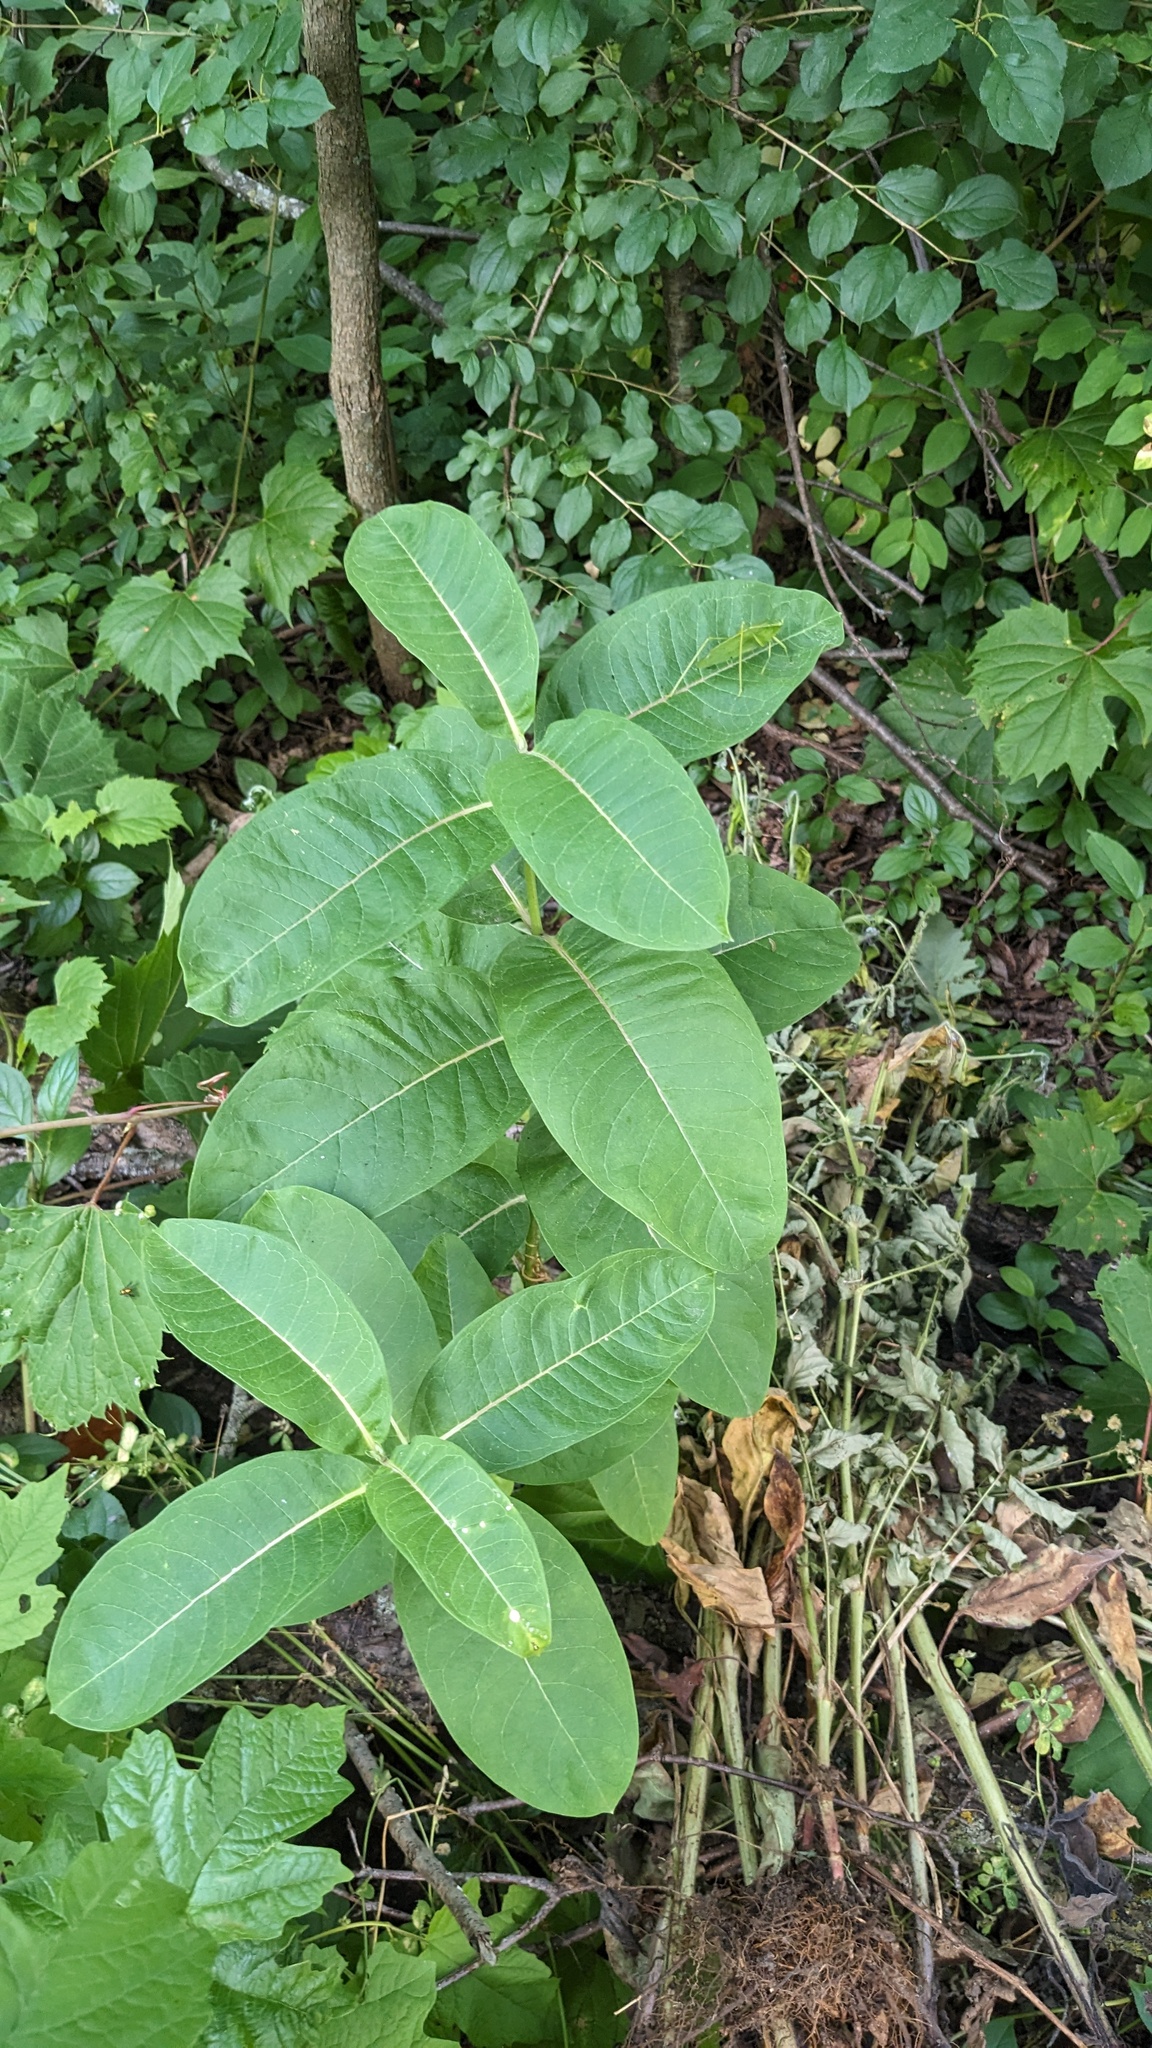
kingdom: Plantae
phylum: Tracheophyta
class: Magnoliopsida
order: Gentianales
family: Apocynaceae
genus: Asclepias
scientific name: Asclepias syriaca
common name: Common milkweed
